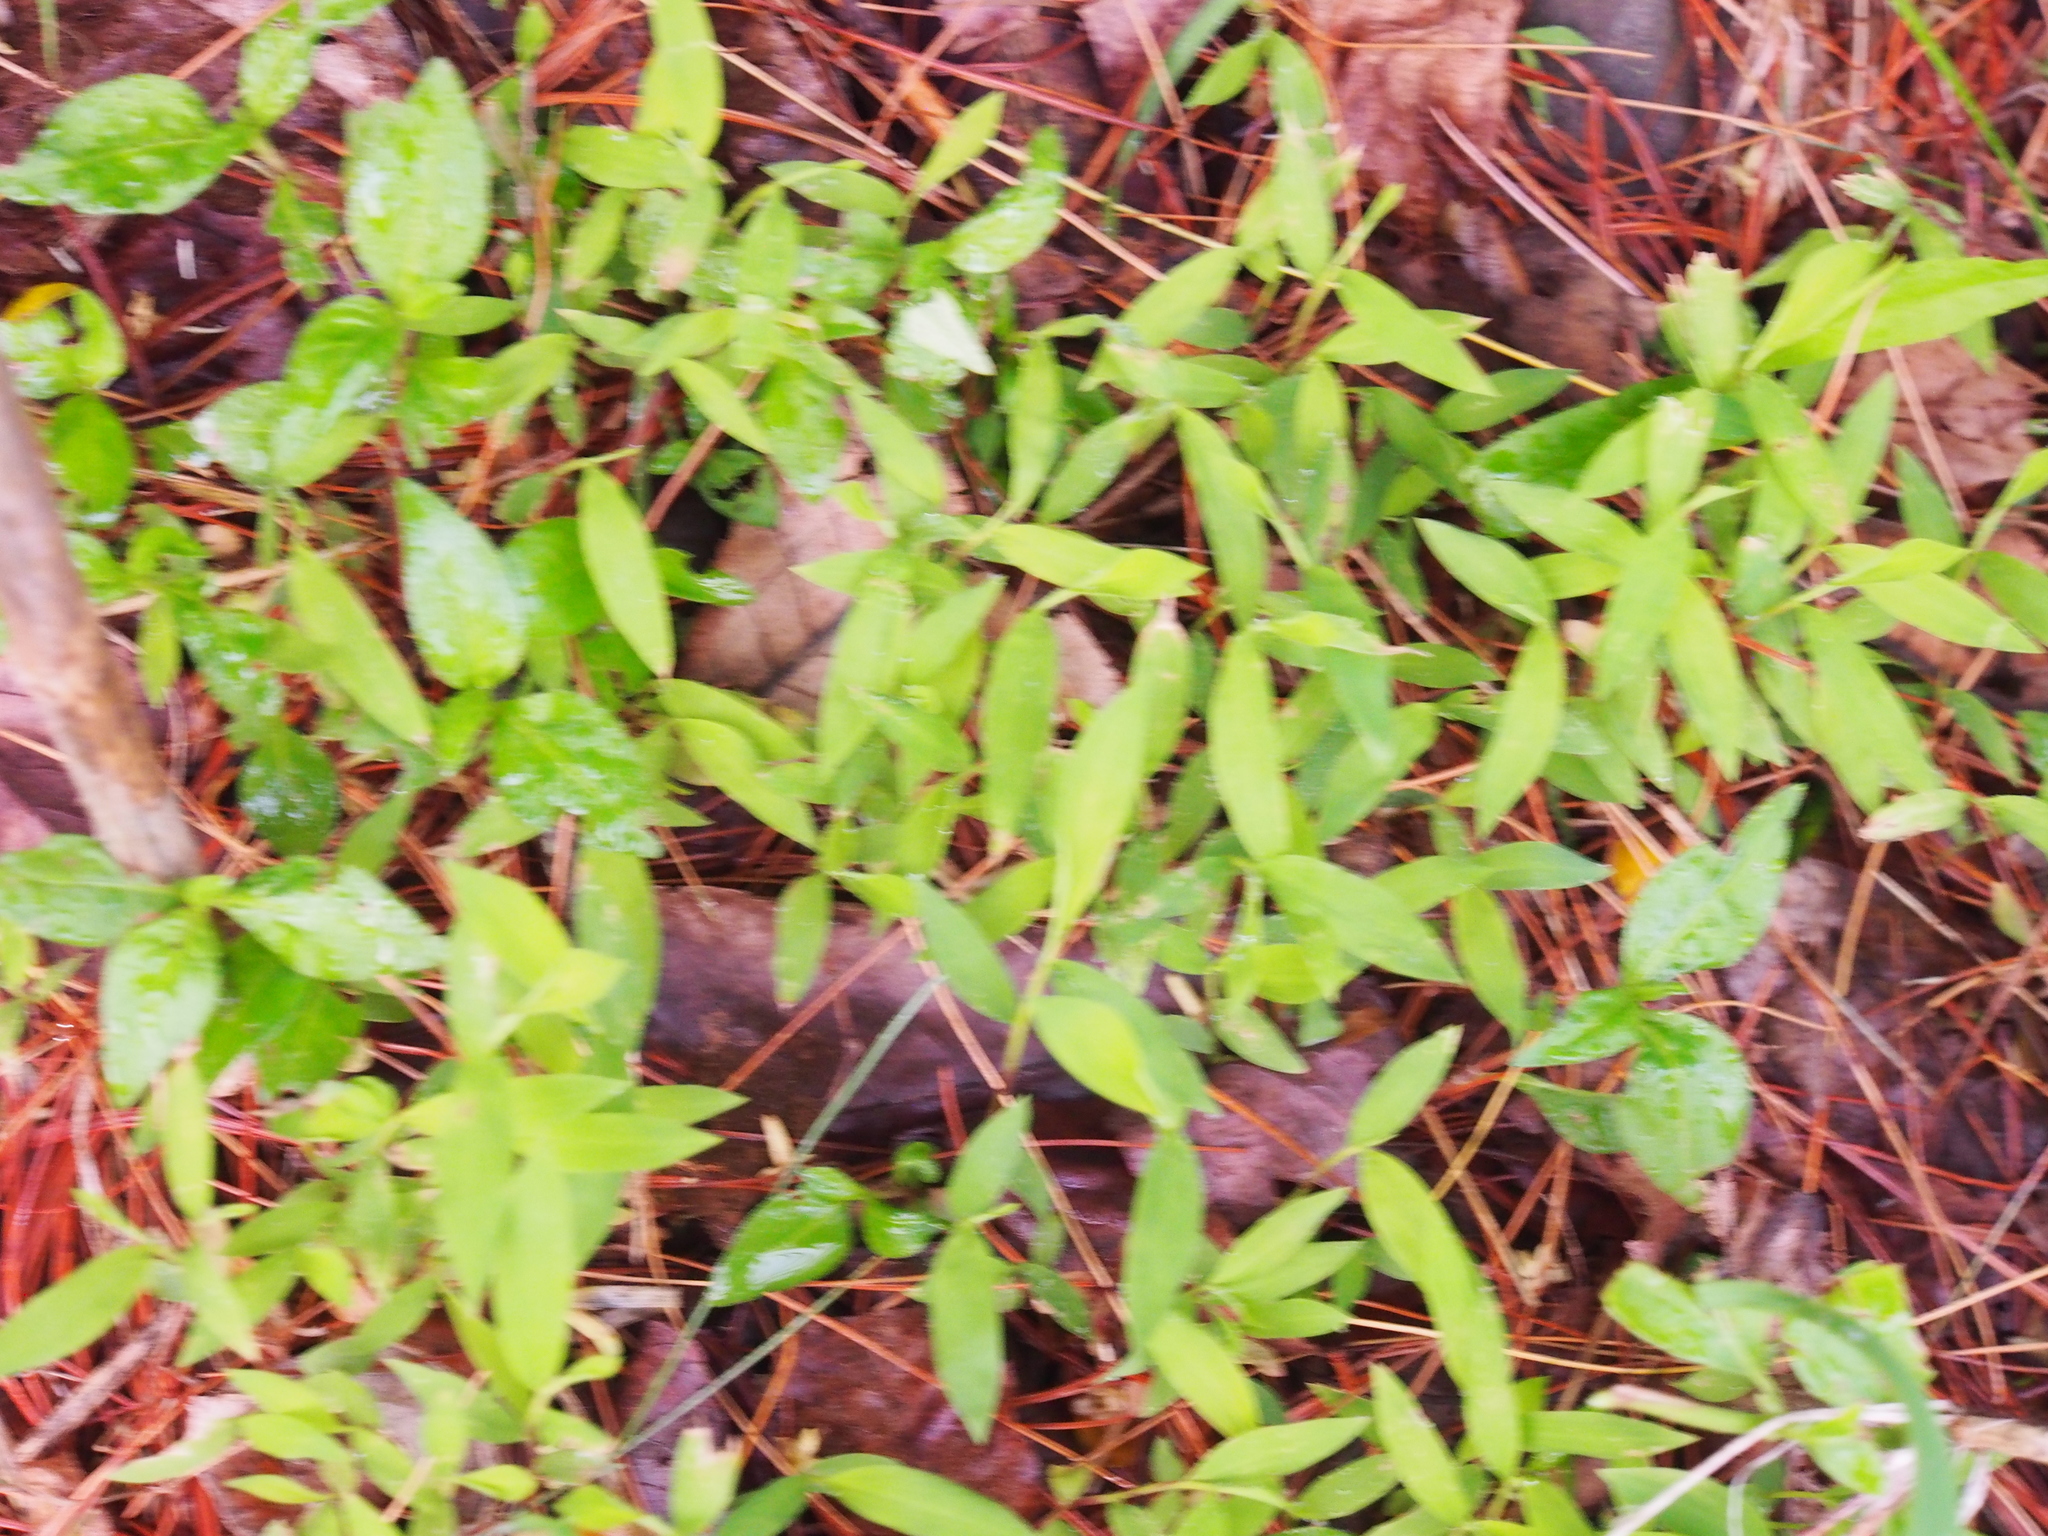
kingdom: Plantae
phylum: Tracheophyta
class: Liliopsida
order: Poales
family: Poaceae
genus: Microstegium
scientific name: Microstegium vimineum
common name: Japanese stiltgrass
